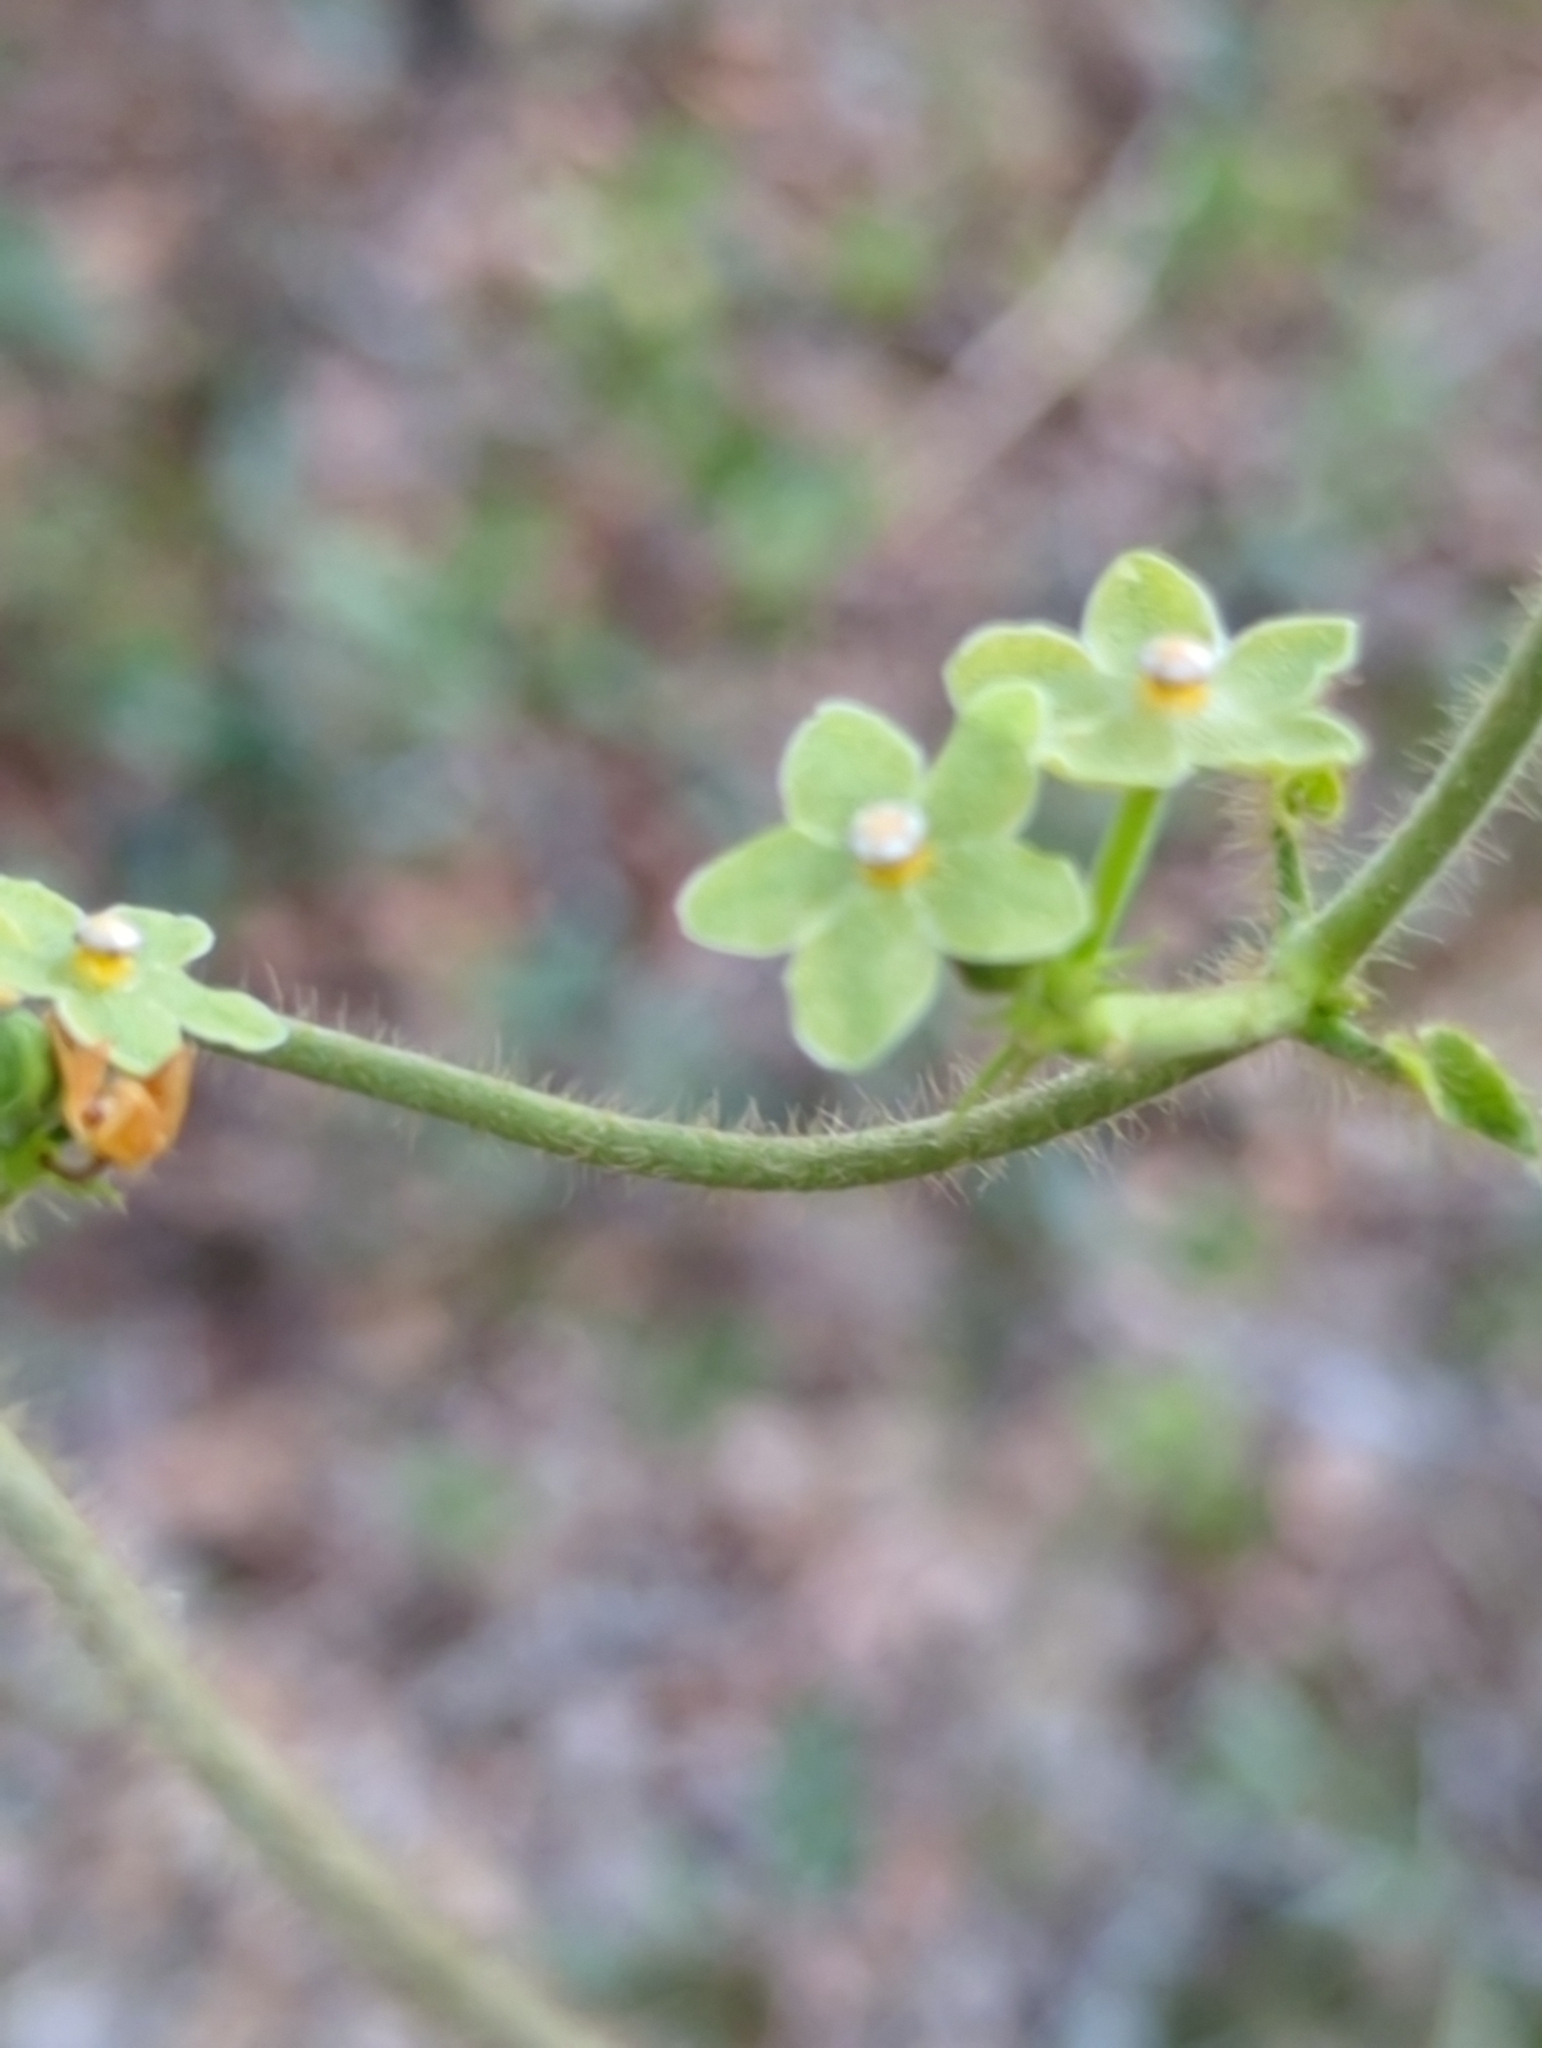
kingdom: Plantae
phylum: Tracheophyta
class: Magnoliopsida
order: Gentianales
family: Apocynaceae
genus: Dictyanthus
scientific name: Dictyanthus reticulatus
